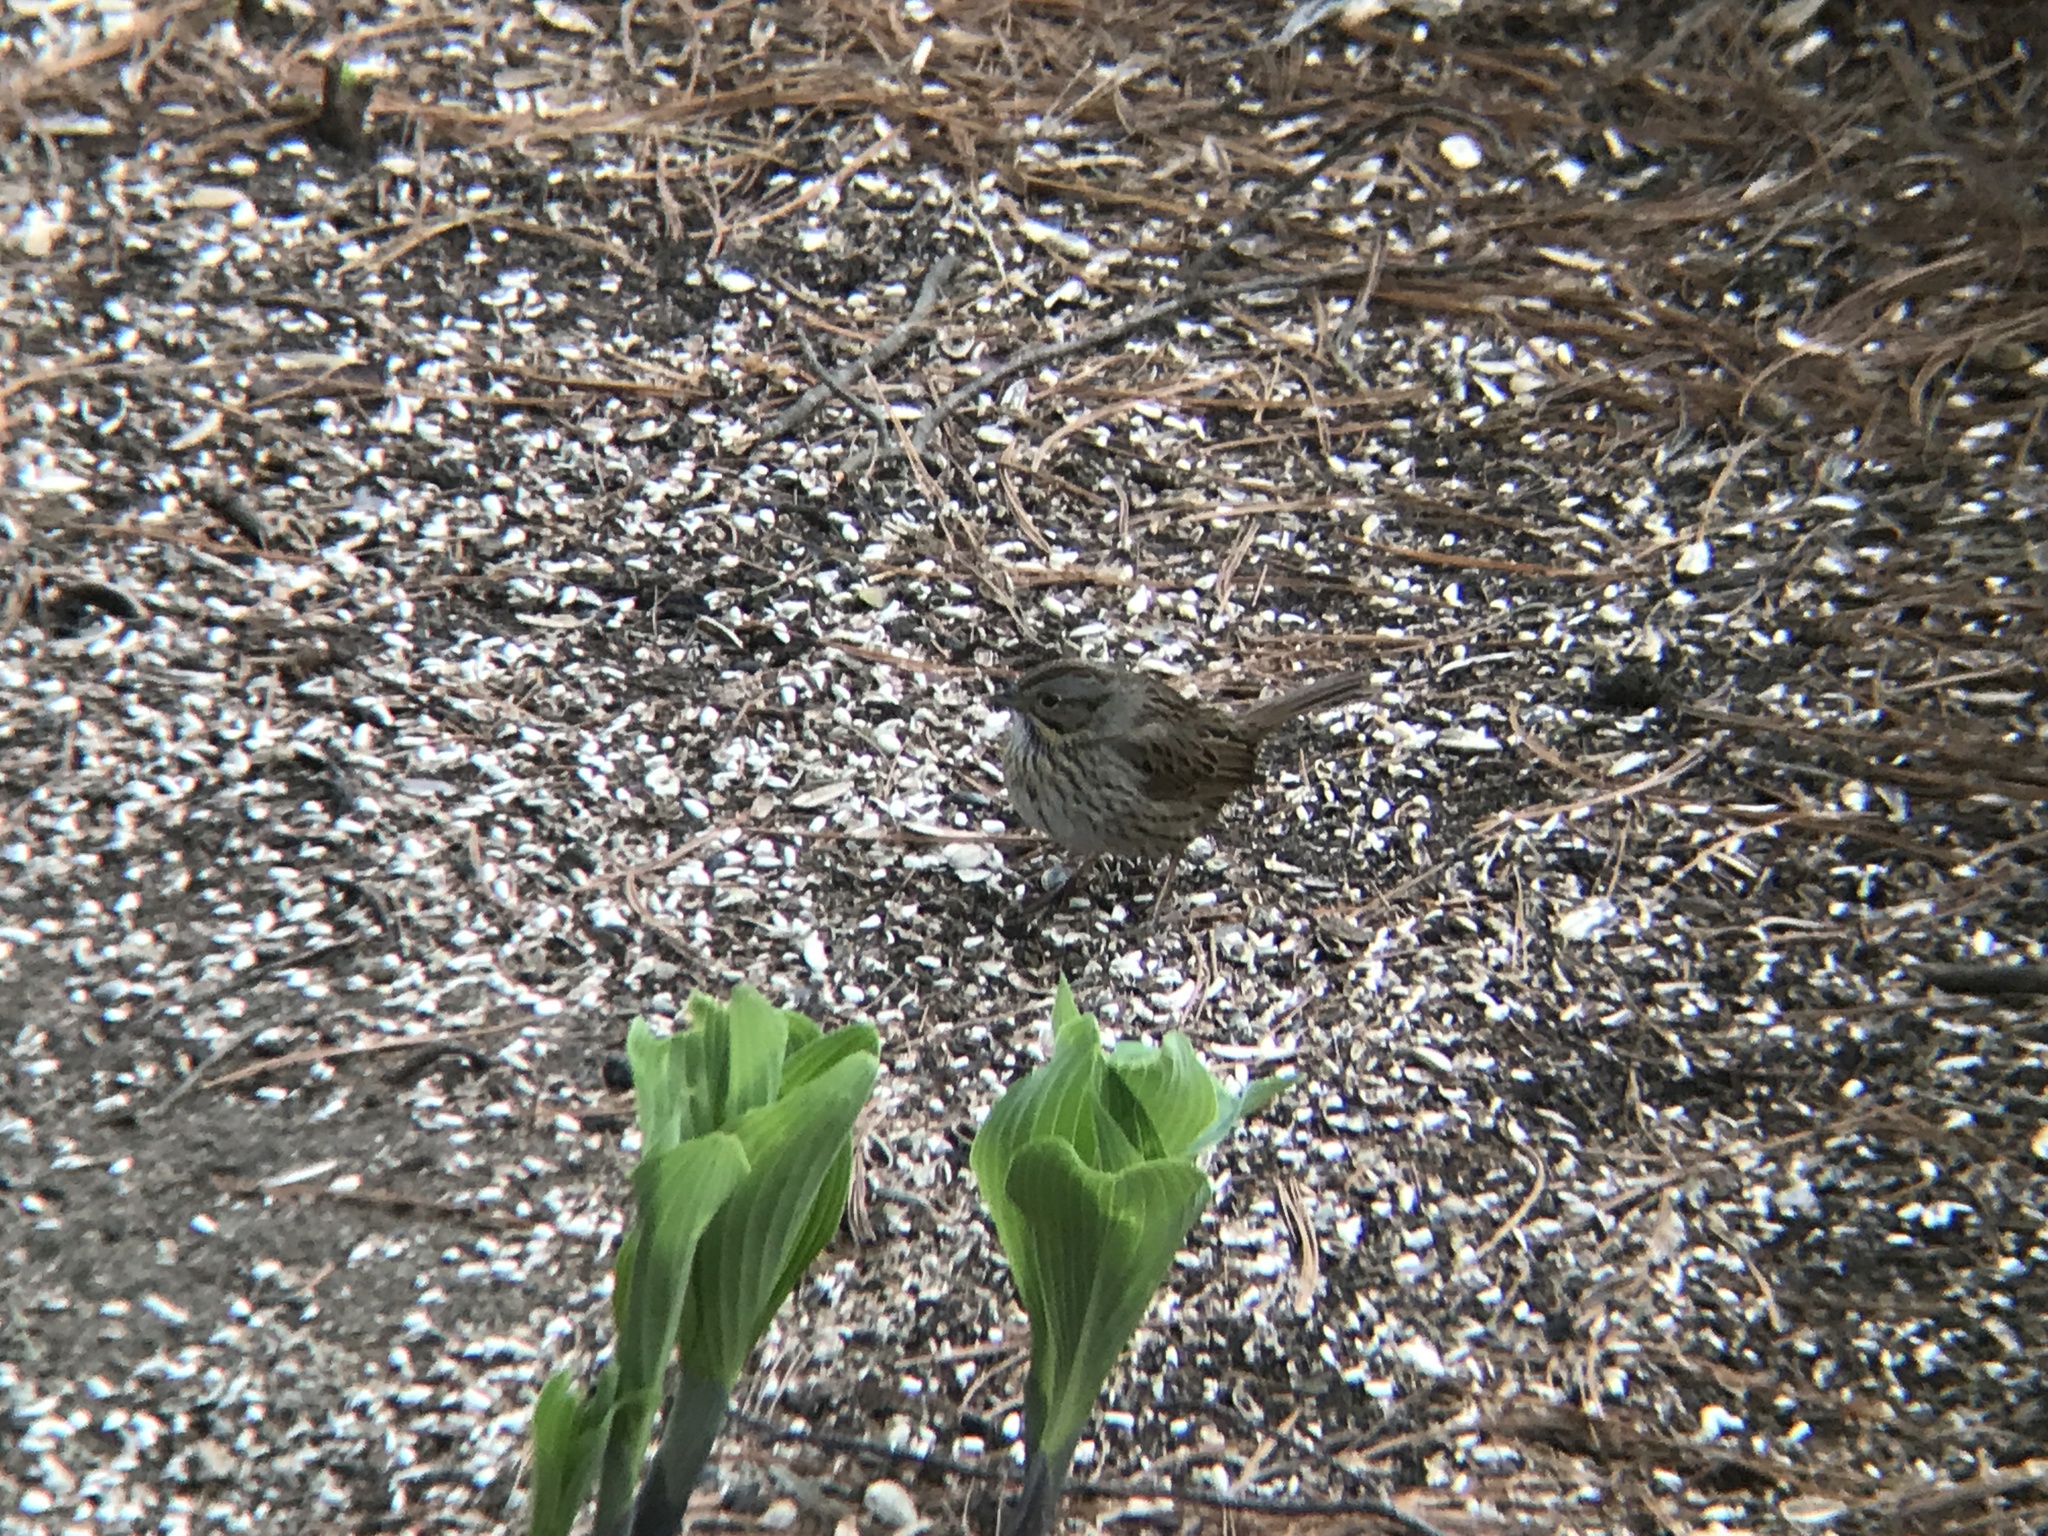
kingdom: Animalia
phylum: Chordata
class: Aves
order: Passeriformes
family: Passerellidae
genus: Melospiza
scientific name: Melospiza lincolnii
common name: Lincoln's sparrow
